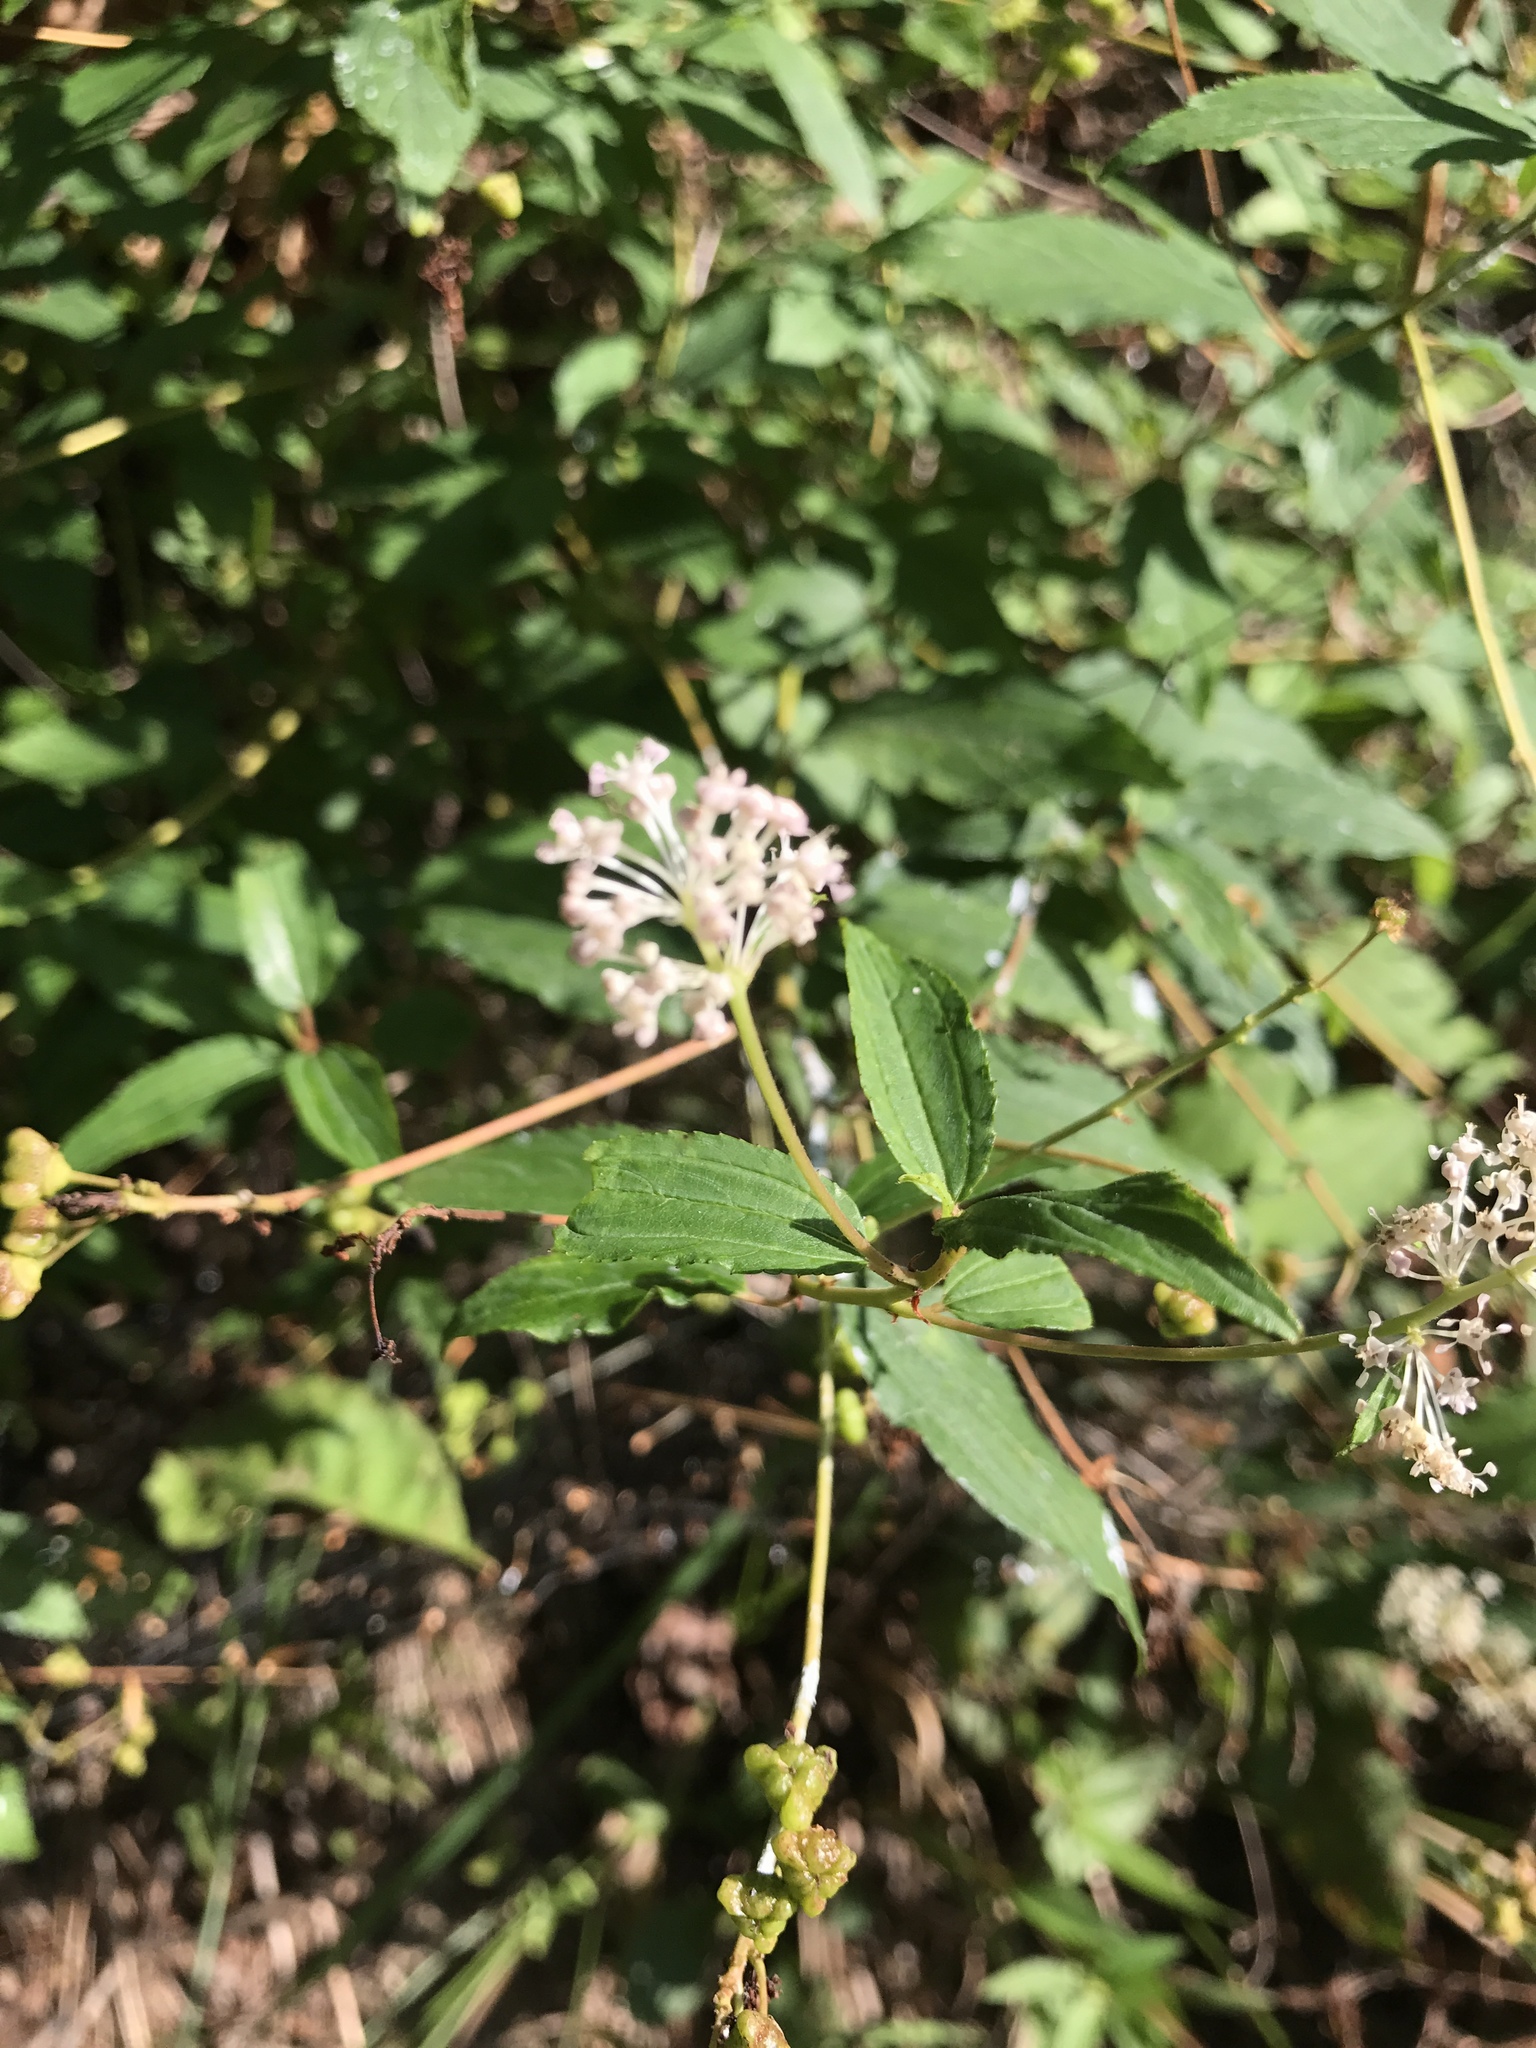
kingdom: Plantae
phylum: Tracheophyta
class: Magnoliopsida
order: Rosales
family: Rhamnaceae
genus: Ceanothus
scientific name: Ceanothus americanus
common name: Redroot
